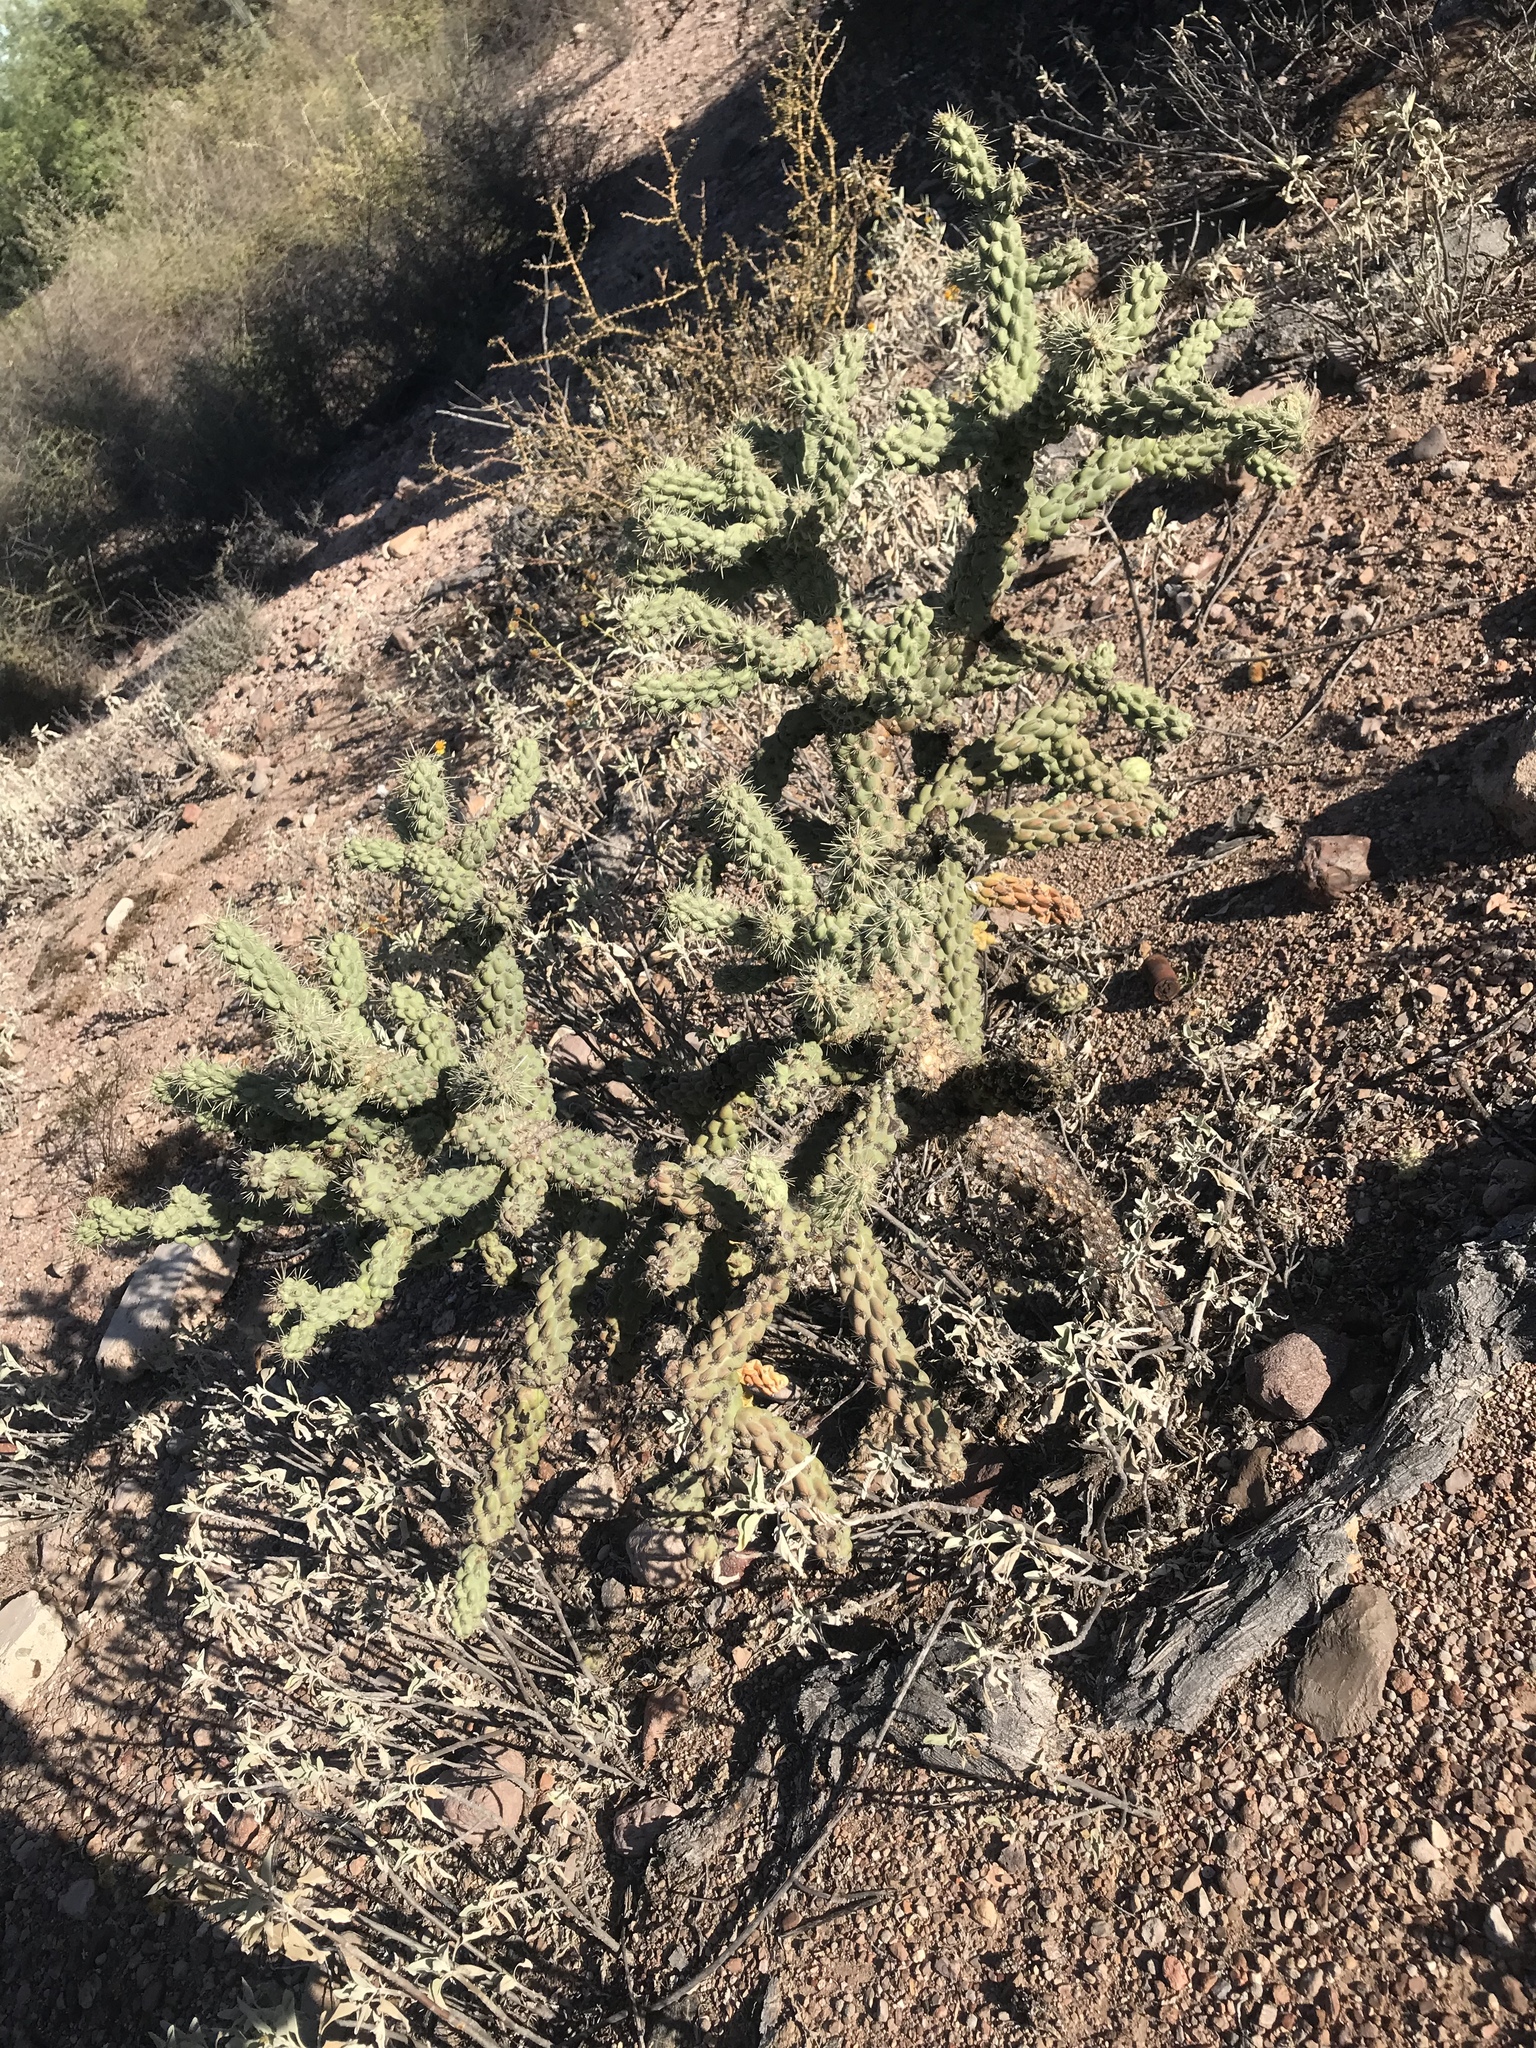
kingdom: Plantae
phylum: Tracheophyta
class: Magnoliopsida
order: Caryophyllales
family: Cactaceae
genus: Cylindropuntia
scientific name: Cylindropuntia fulgida
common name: Jumping cholla
